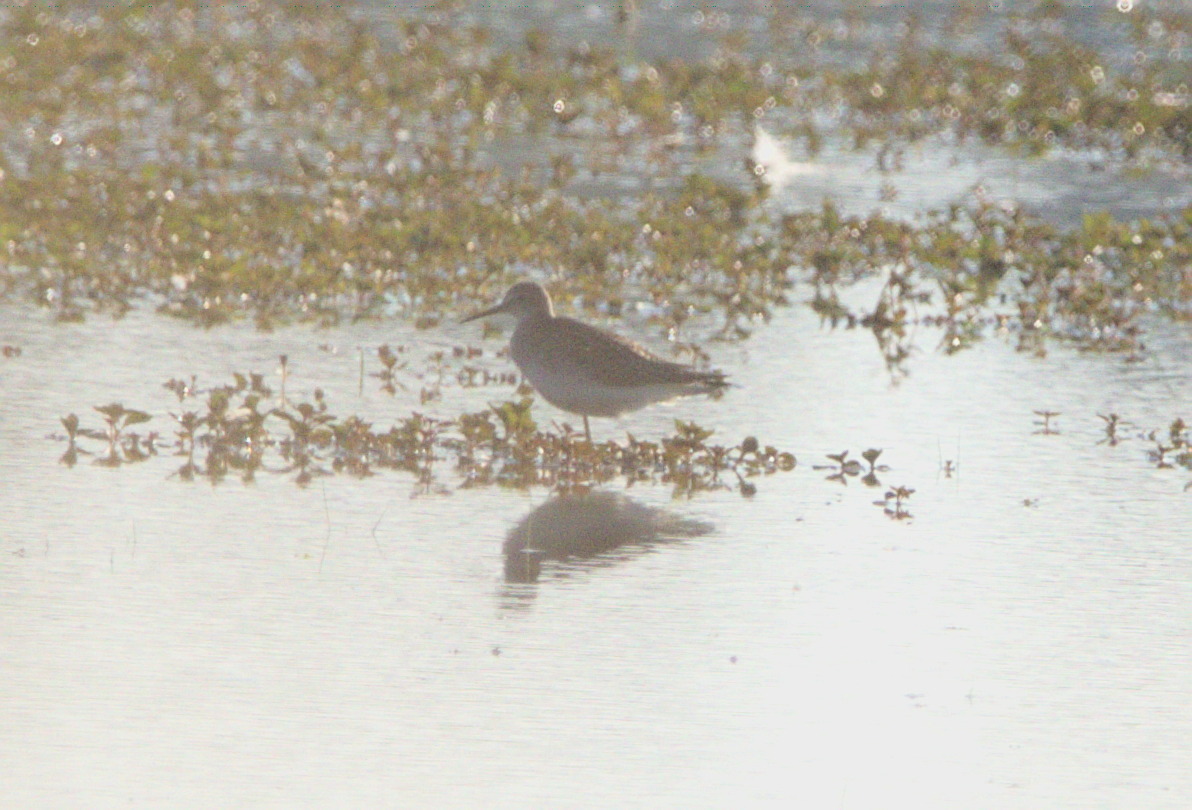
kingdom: Animalia
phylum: Chordata
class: Aves
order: Charadriiformes
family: Scolopacidae
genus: Tringa
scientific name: Tringa flavipes
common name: Lesser yellowlegs
